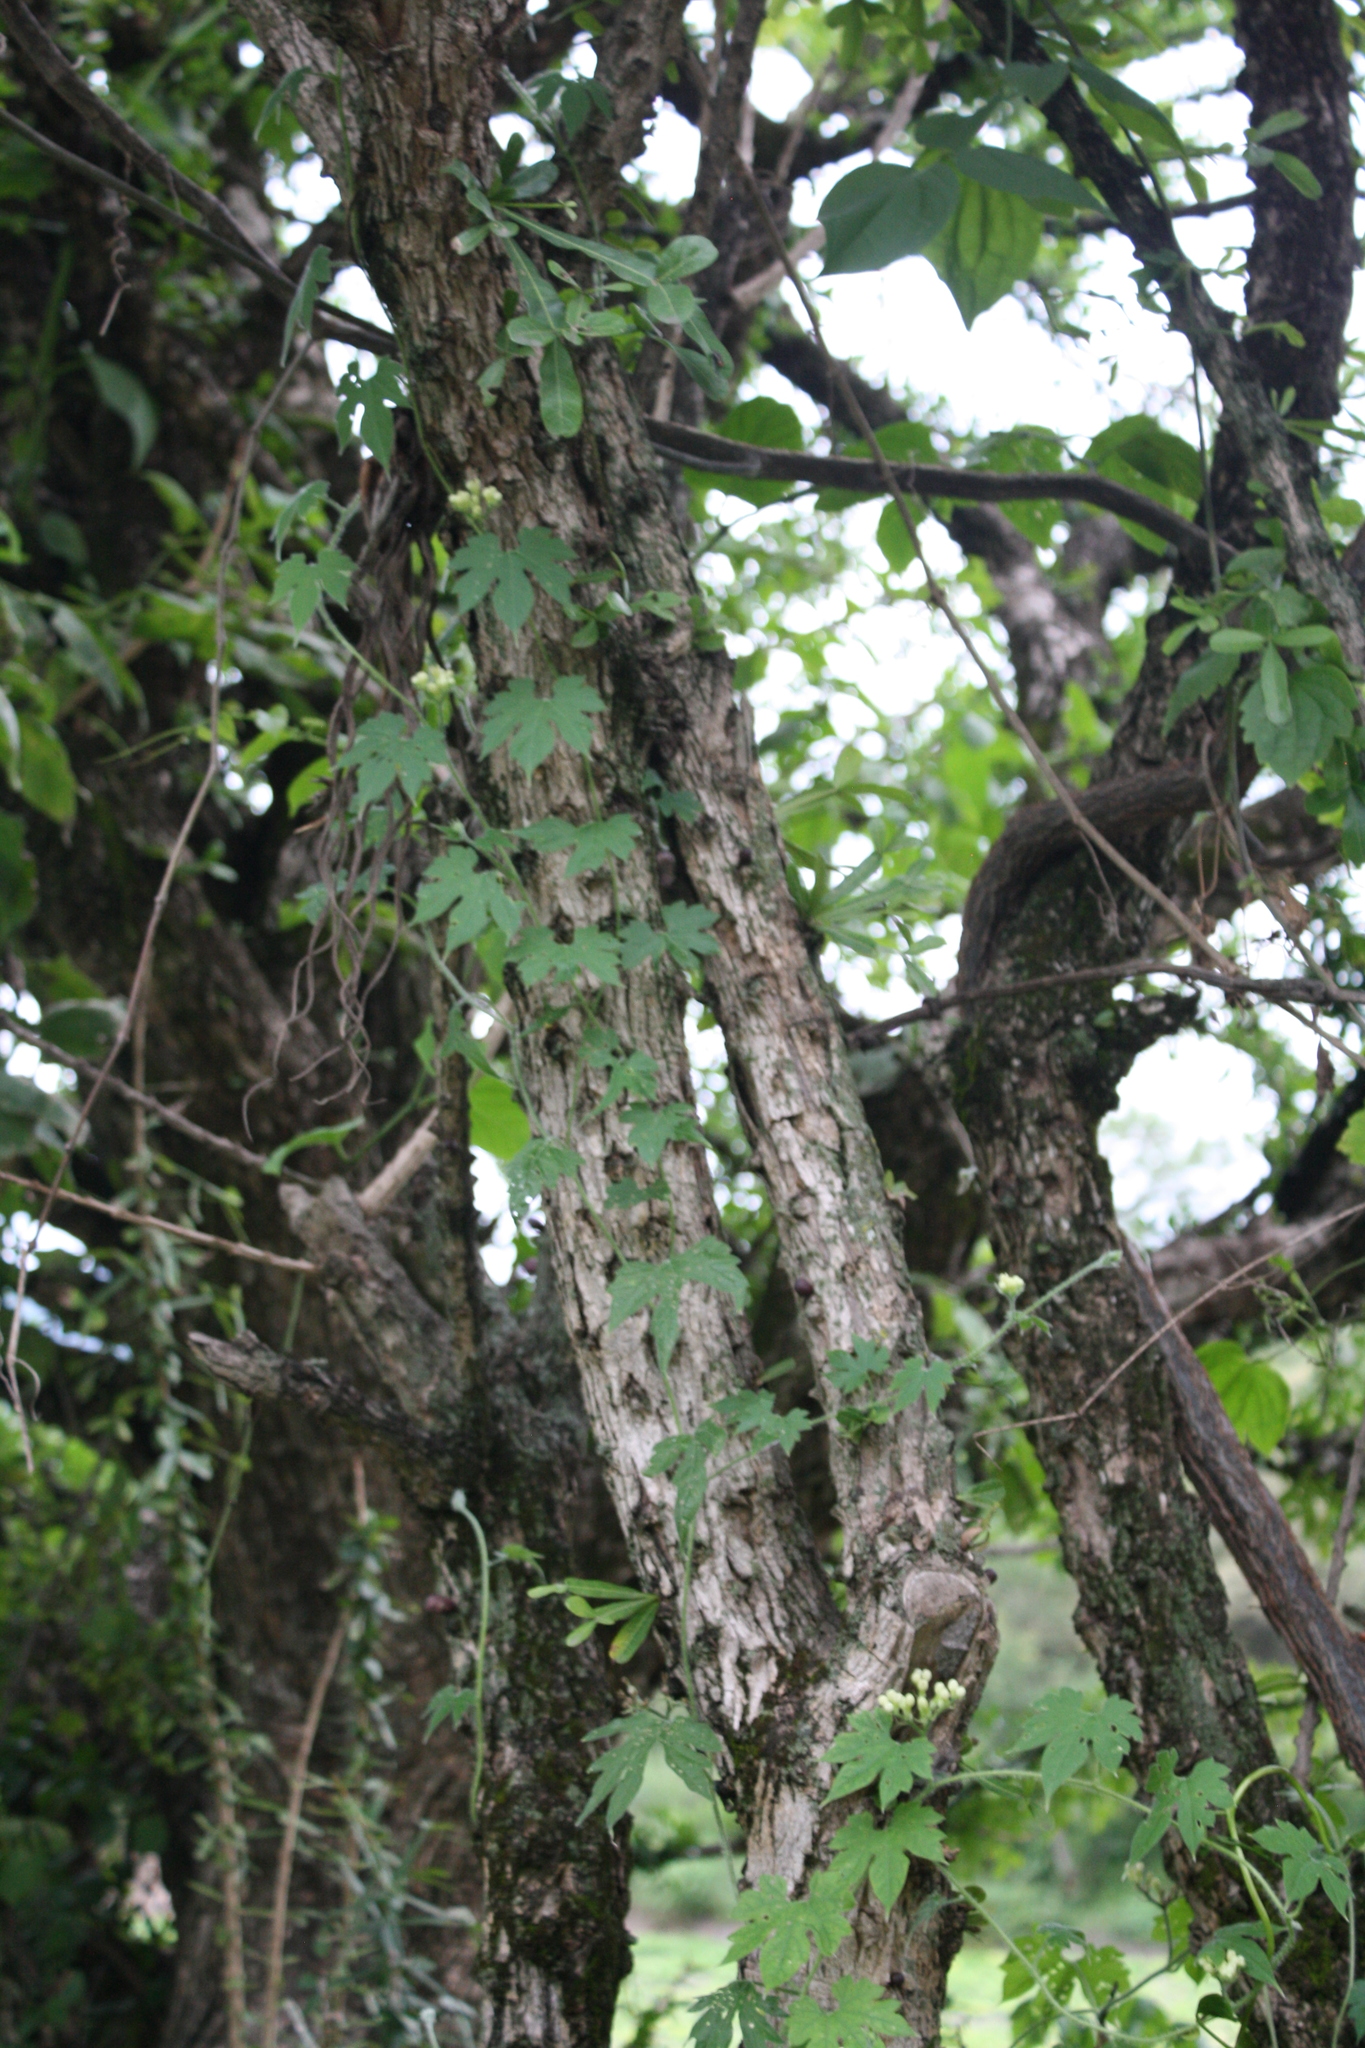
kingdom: Plantae
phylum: Tracheophyta
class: Magnoliopsida
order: Lamiales
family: Bignoniaceae
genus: Crescentia
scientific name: Crescentia alata
